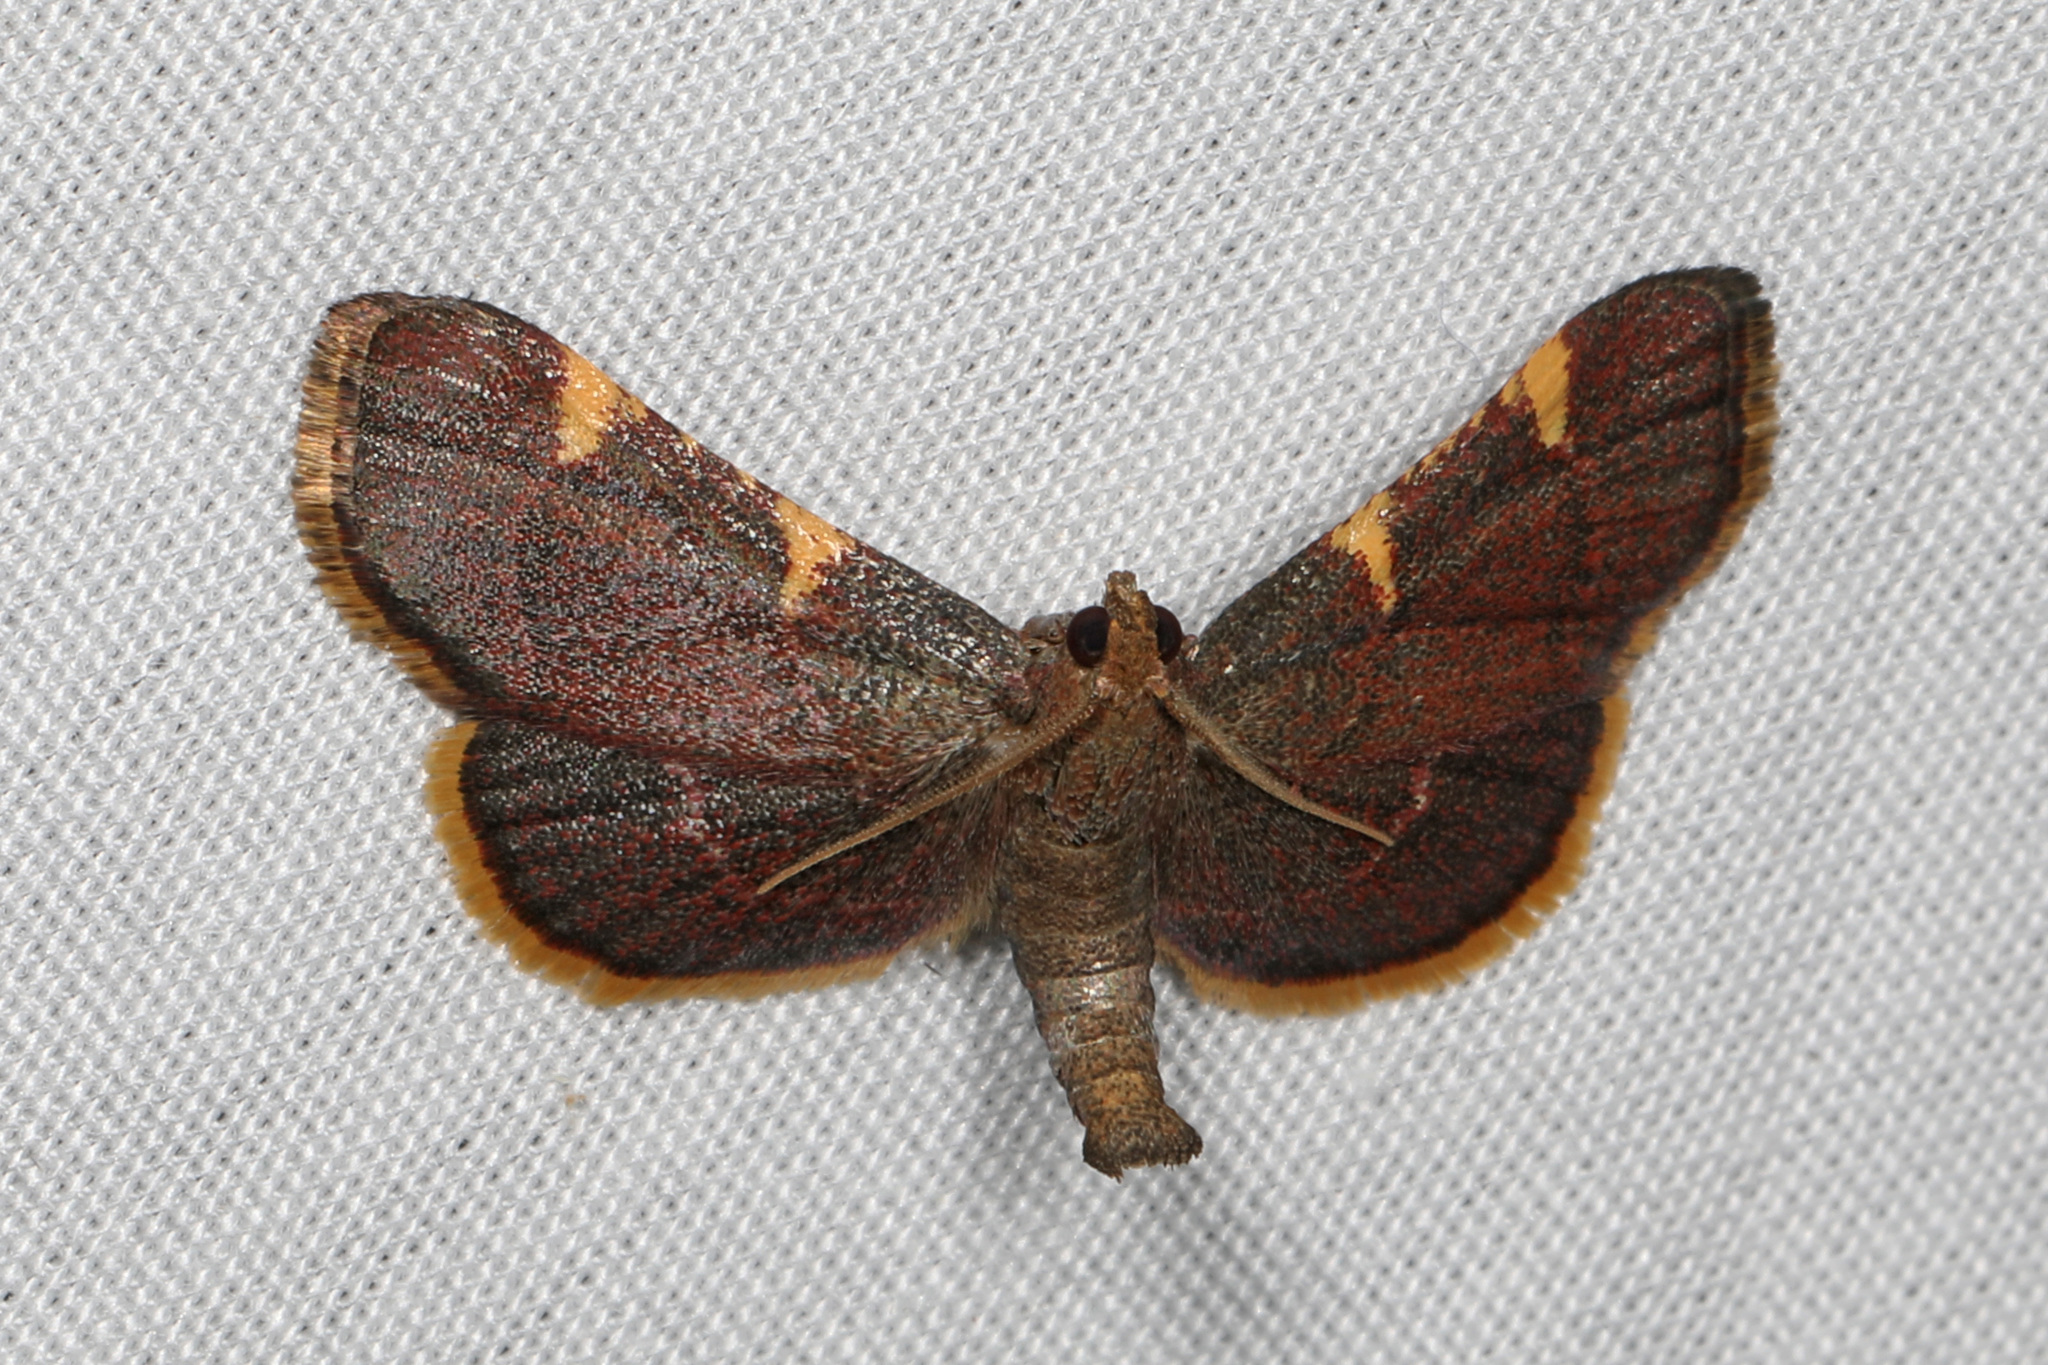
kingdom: Animalia
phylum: Arthropoda
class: Insecta
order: Lepidoptera
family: Pyralidae
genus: Hypsopygia
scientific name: Hypsopygia olinalis
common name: Yellow-fringed dolichomia moth
